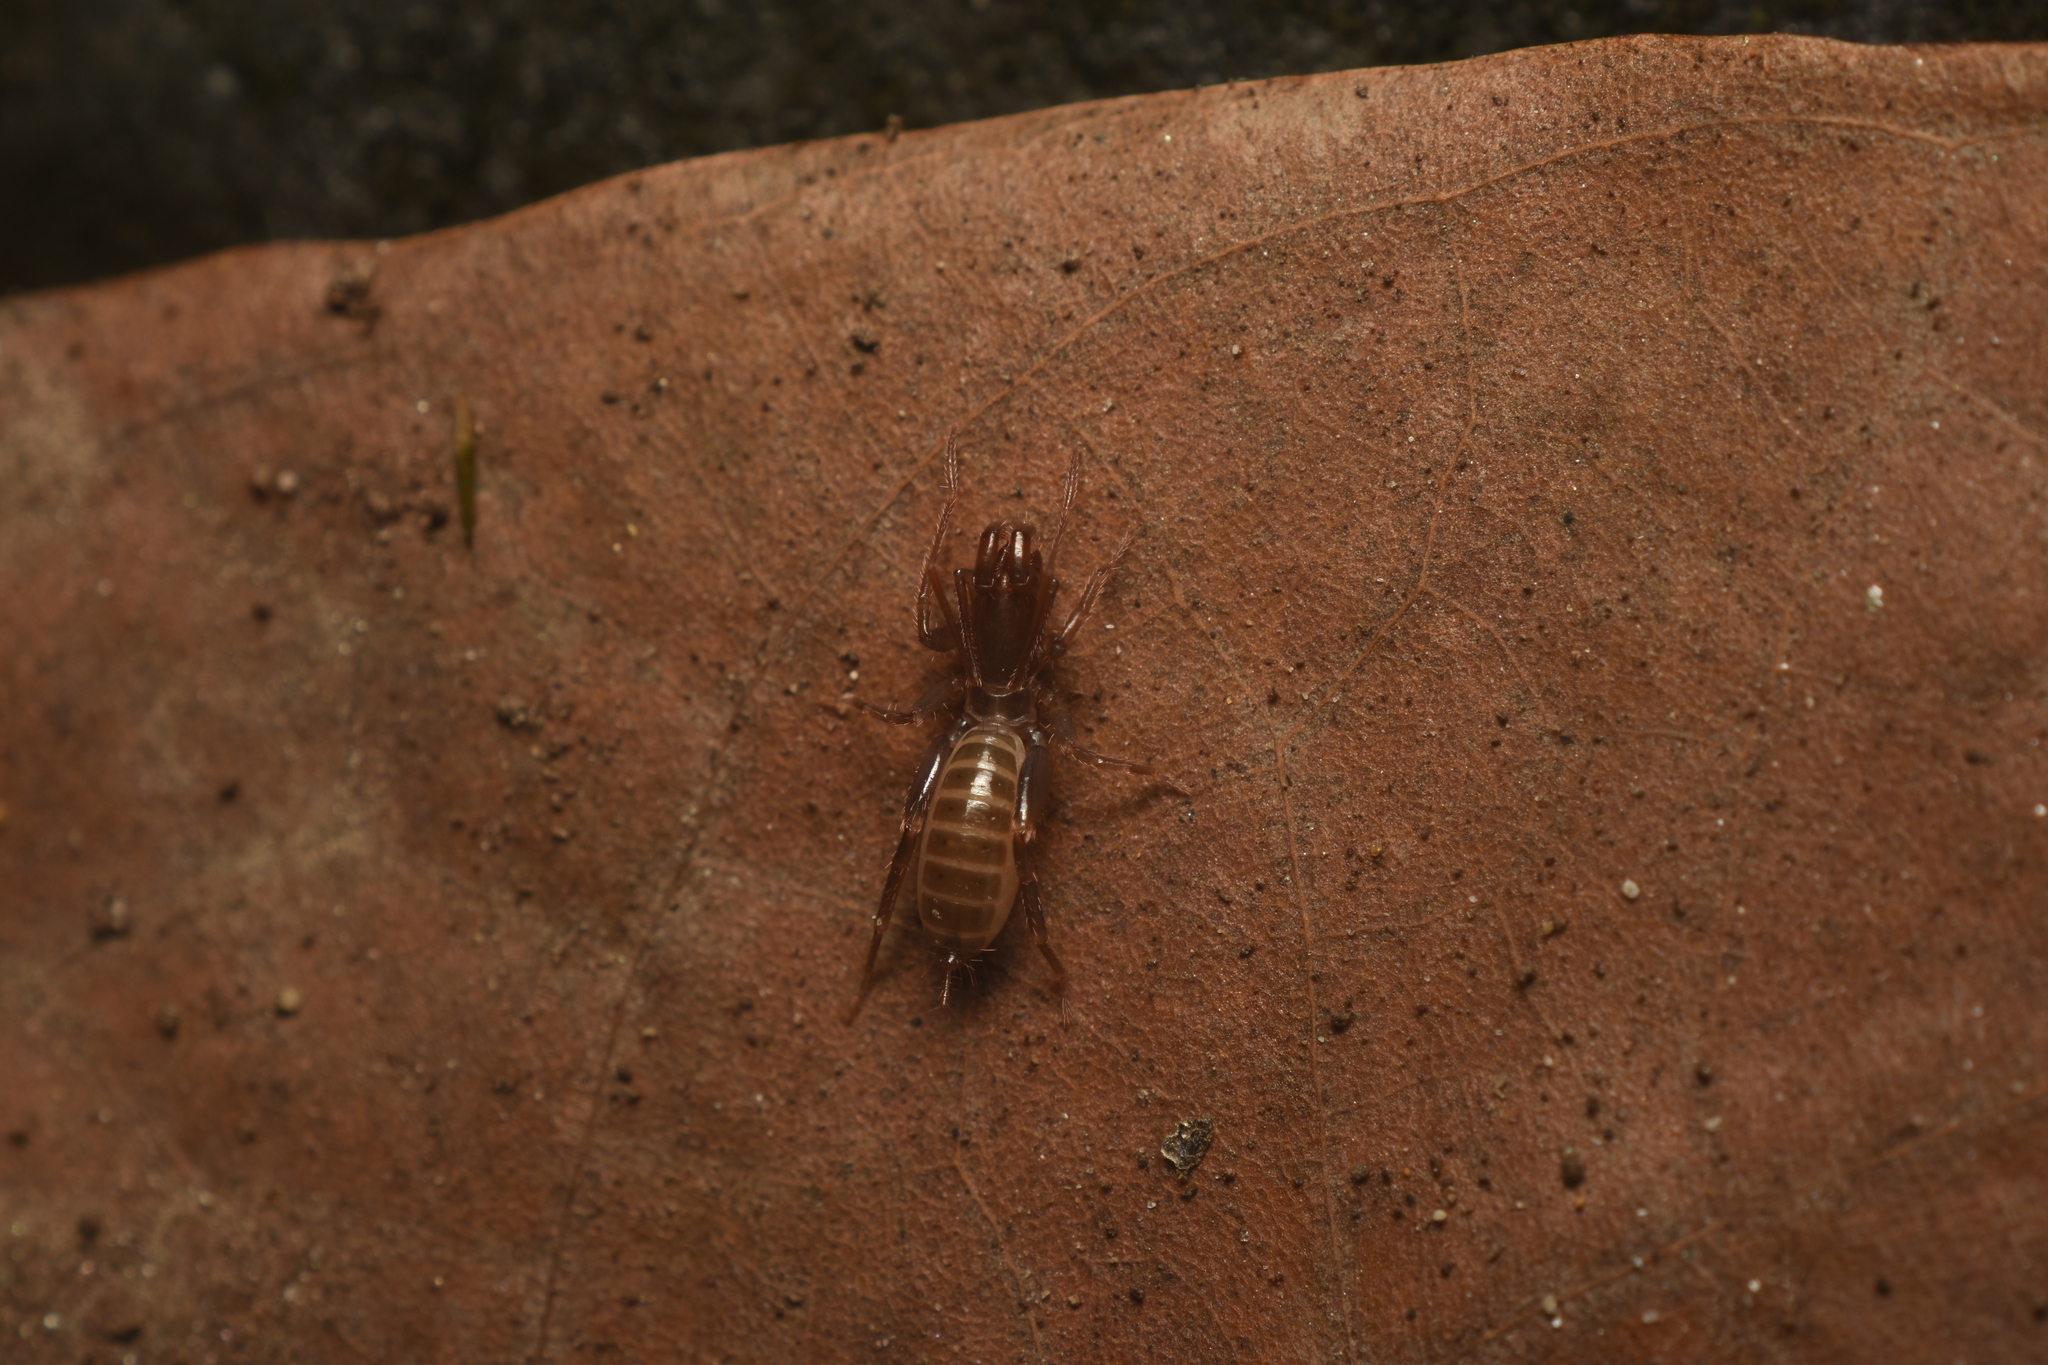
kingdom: Animalia
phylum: Arthropoda
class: Arachnida
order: Schizomida
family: Hubbardiidae
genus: Stenochrus
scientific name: Stenochrus portoricensis
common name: Shorttailed whipscorpion
